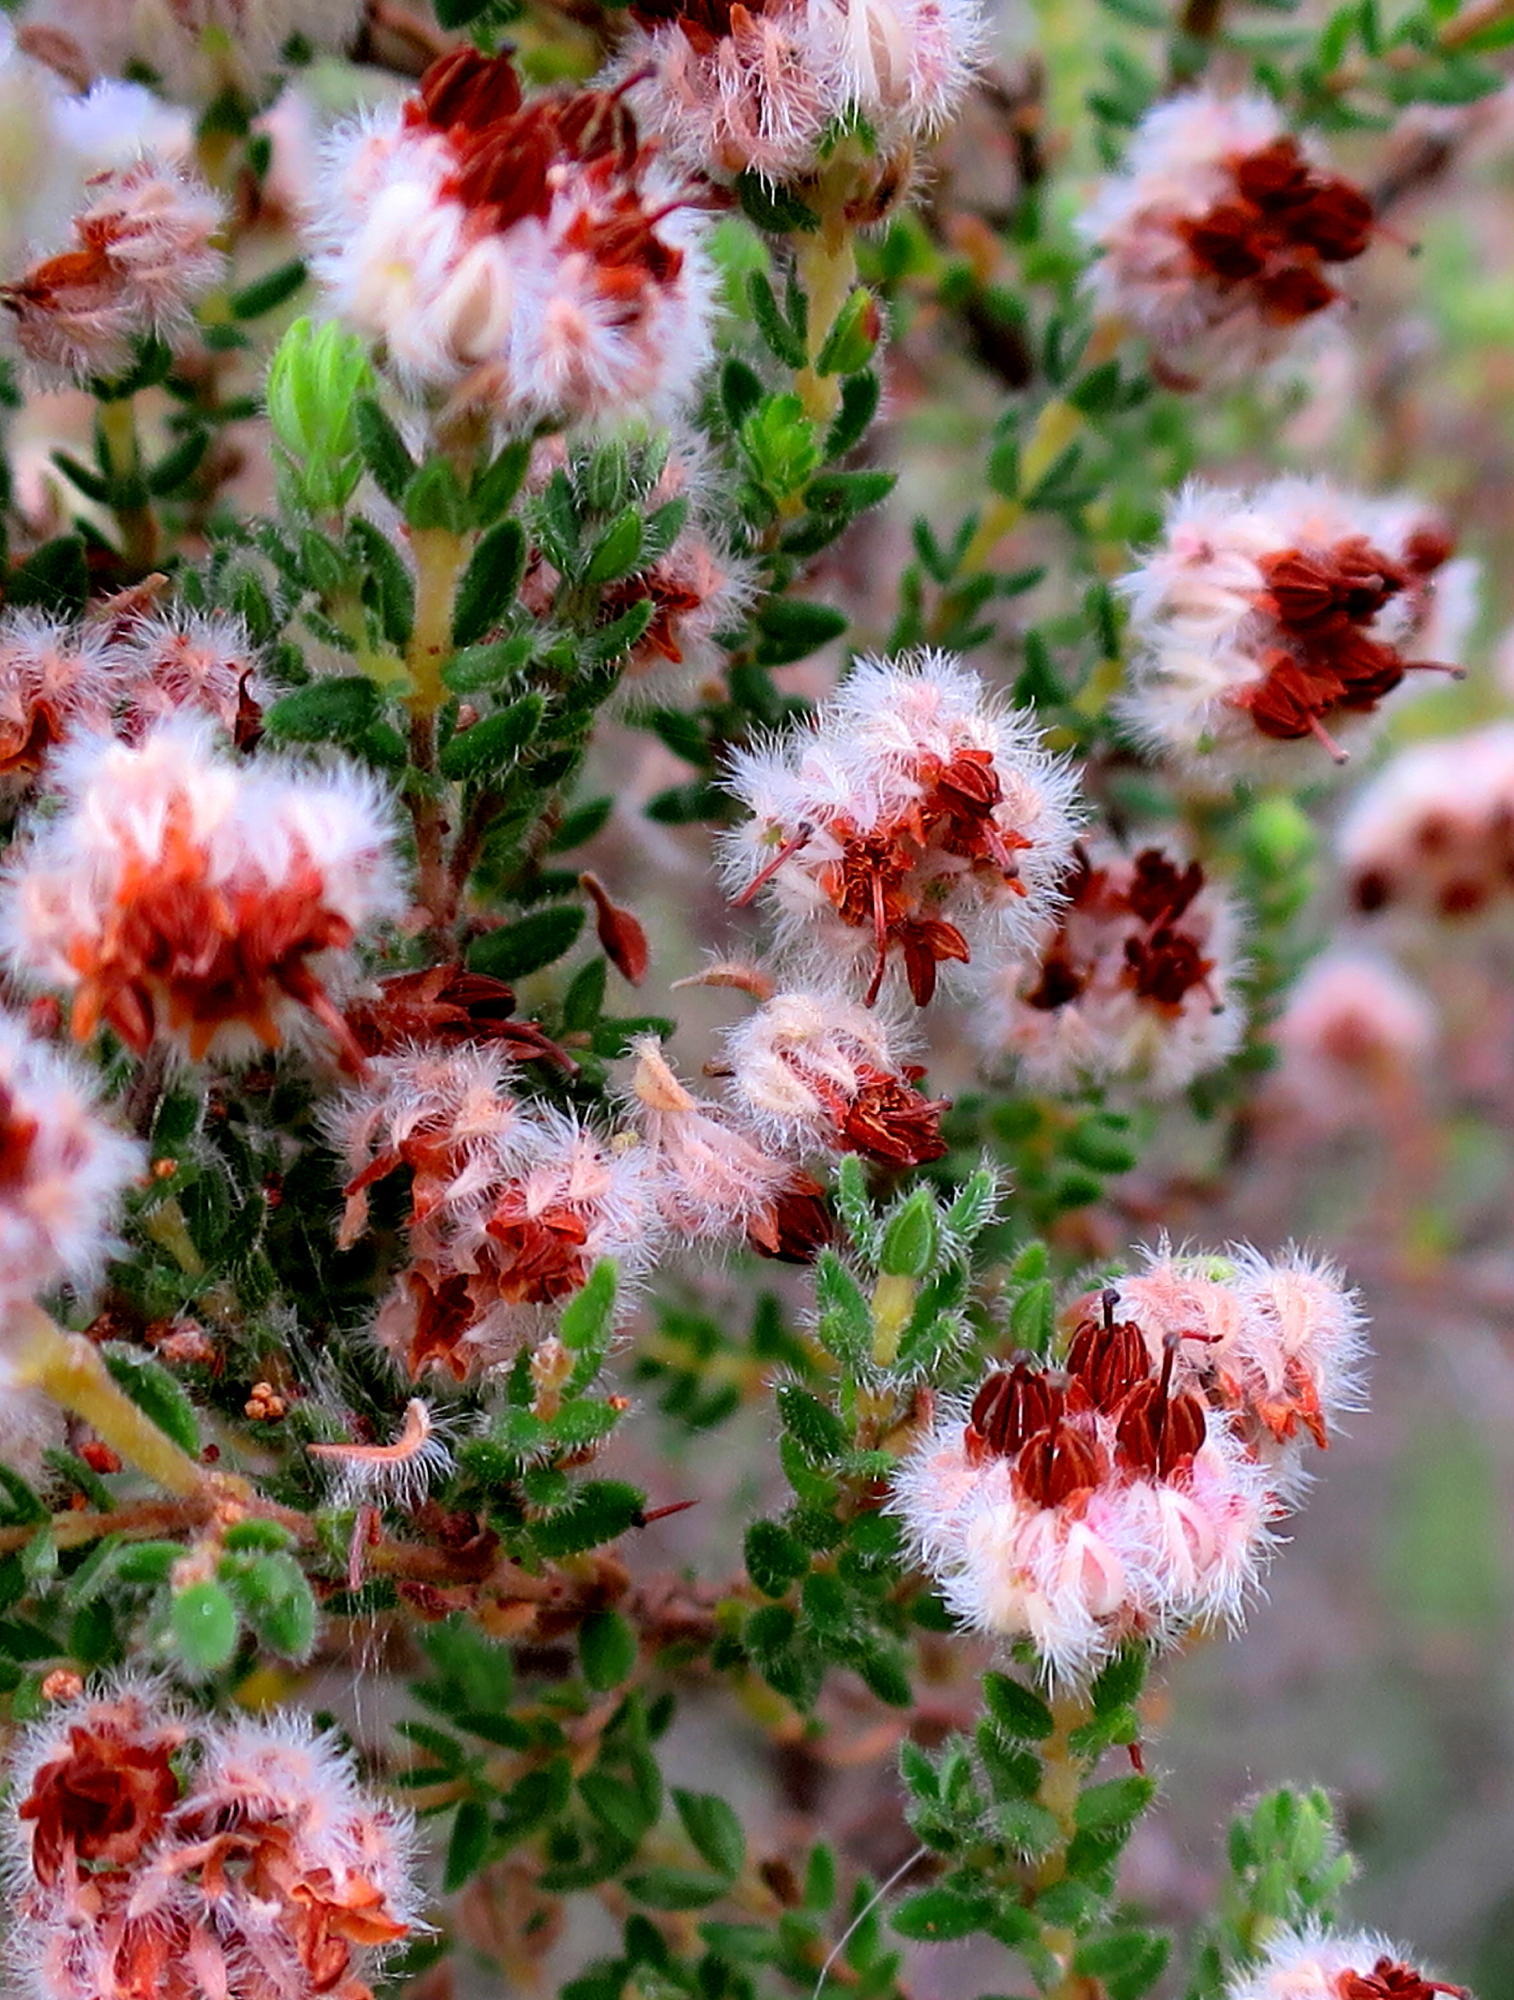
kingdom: Plantae
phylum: Tracheophyta
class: Magnoliopsida
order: Ericales
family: Ericaceae
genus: Erica
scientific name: Erica flaccida
